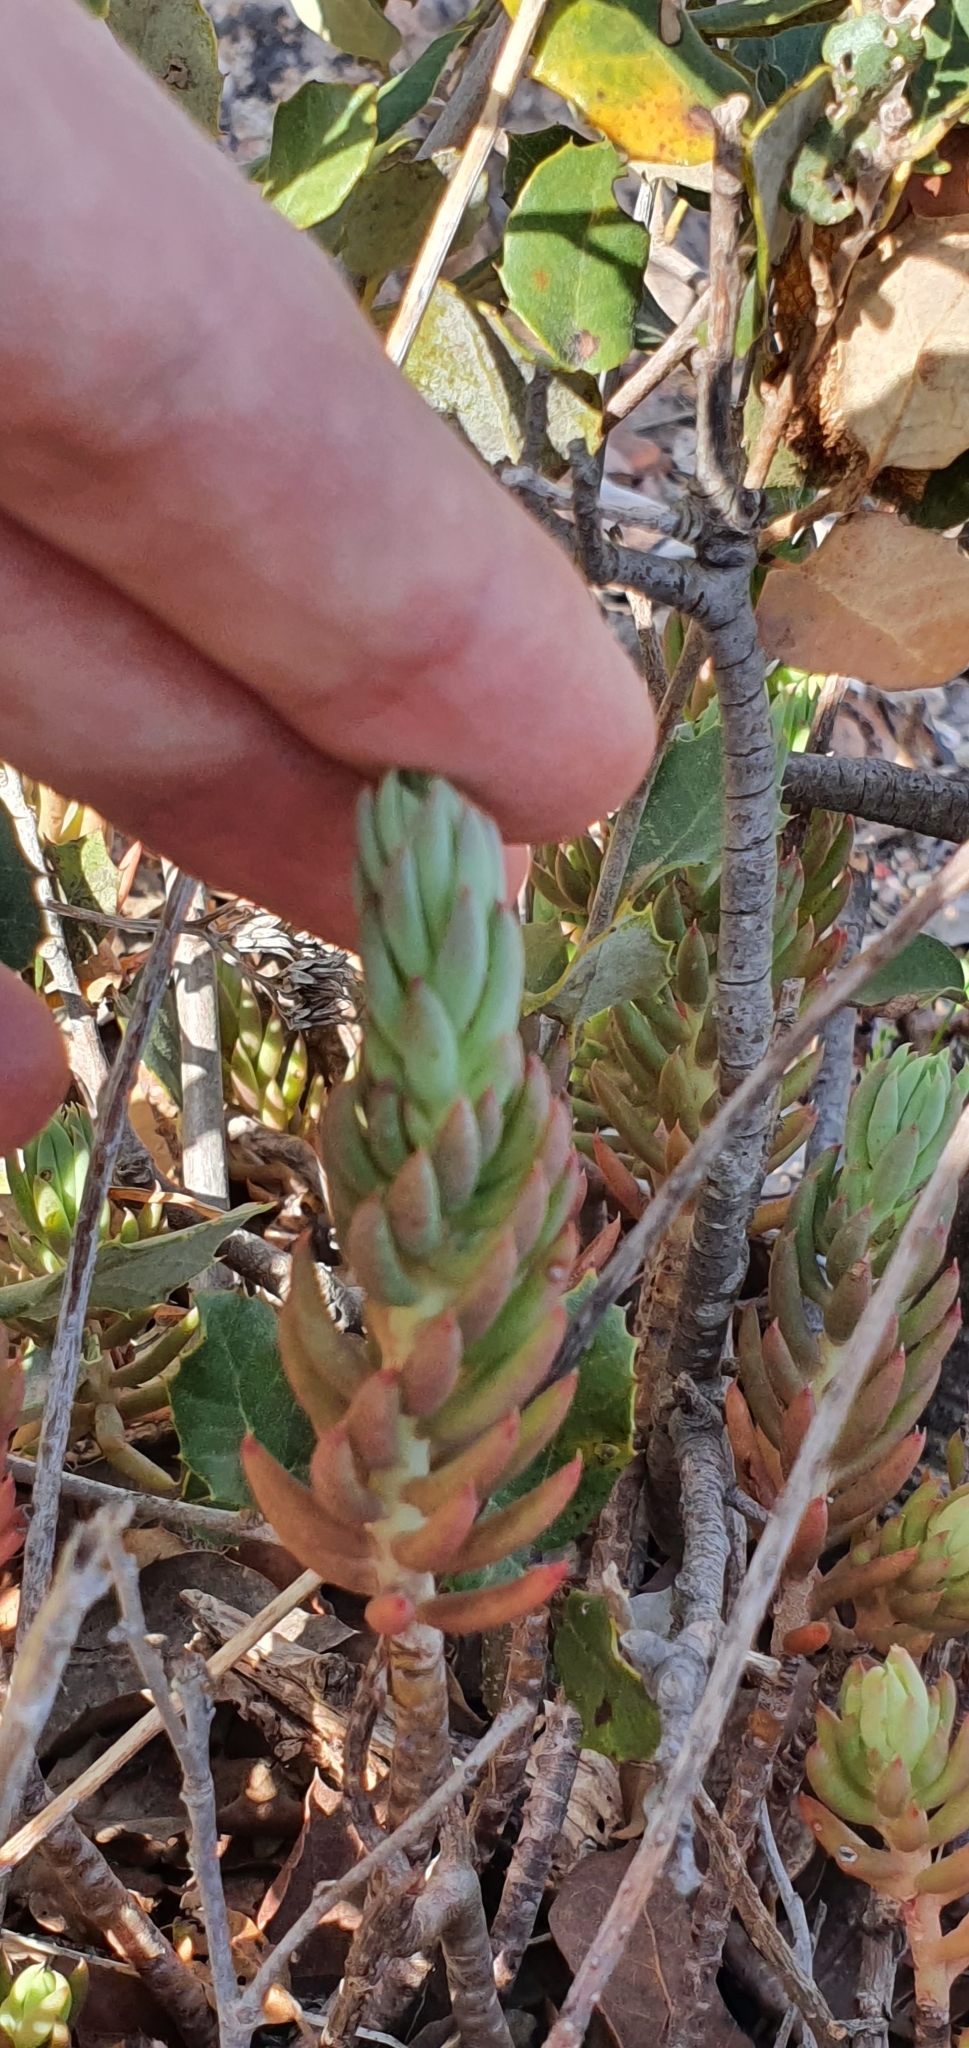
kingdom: Plantae
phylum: Tracheophyta
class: Magnoliopsida
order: Saxifragales
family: Crassulaceae
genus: Petrosedum
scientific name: Petrosedum sediforme
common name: Pale stonecrop
